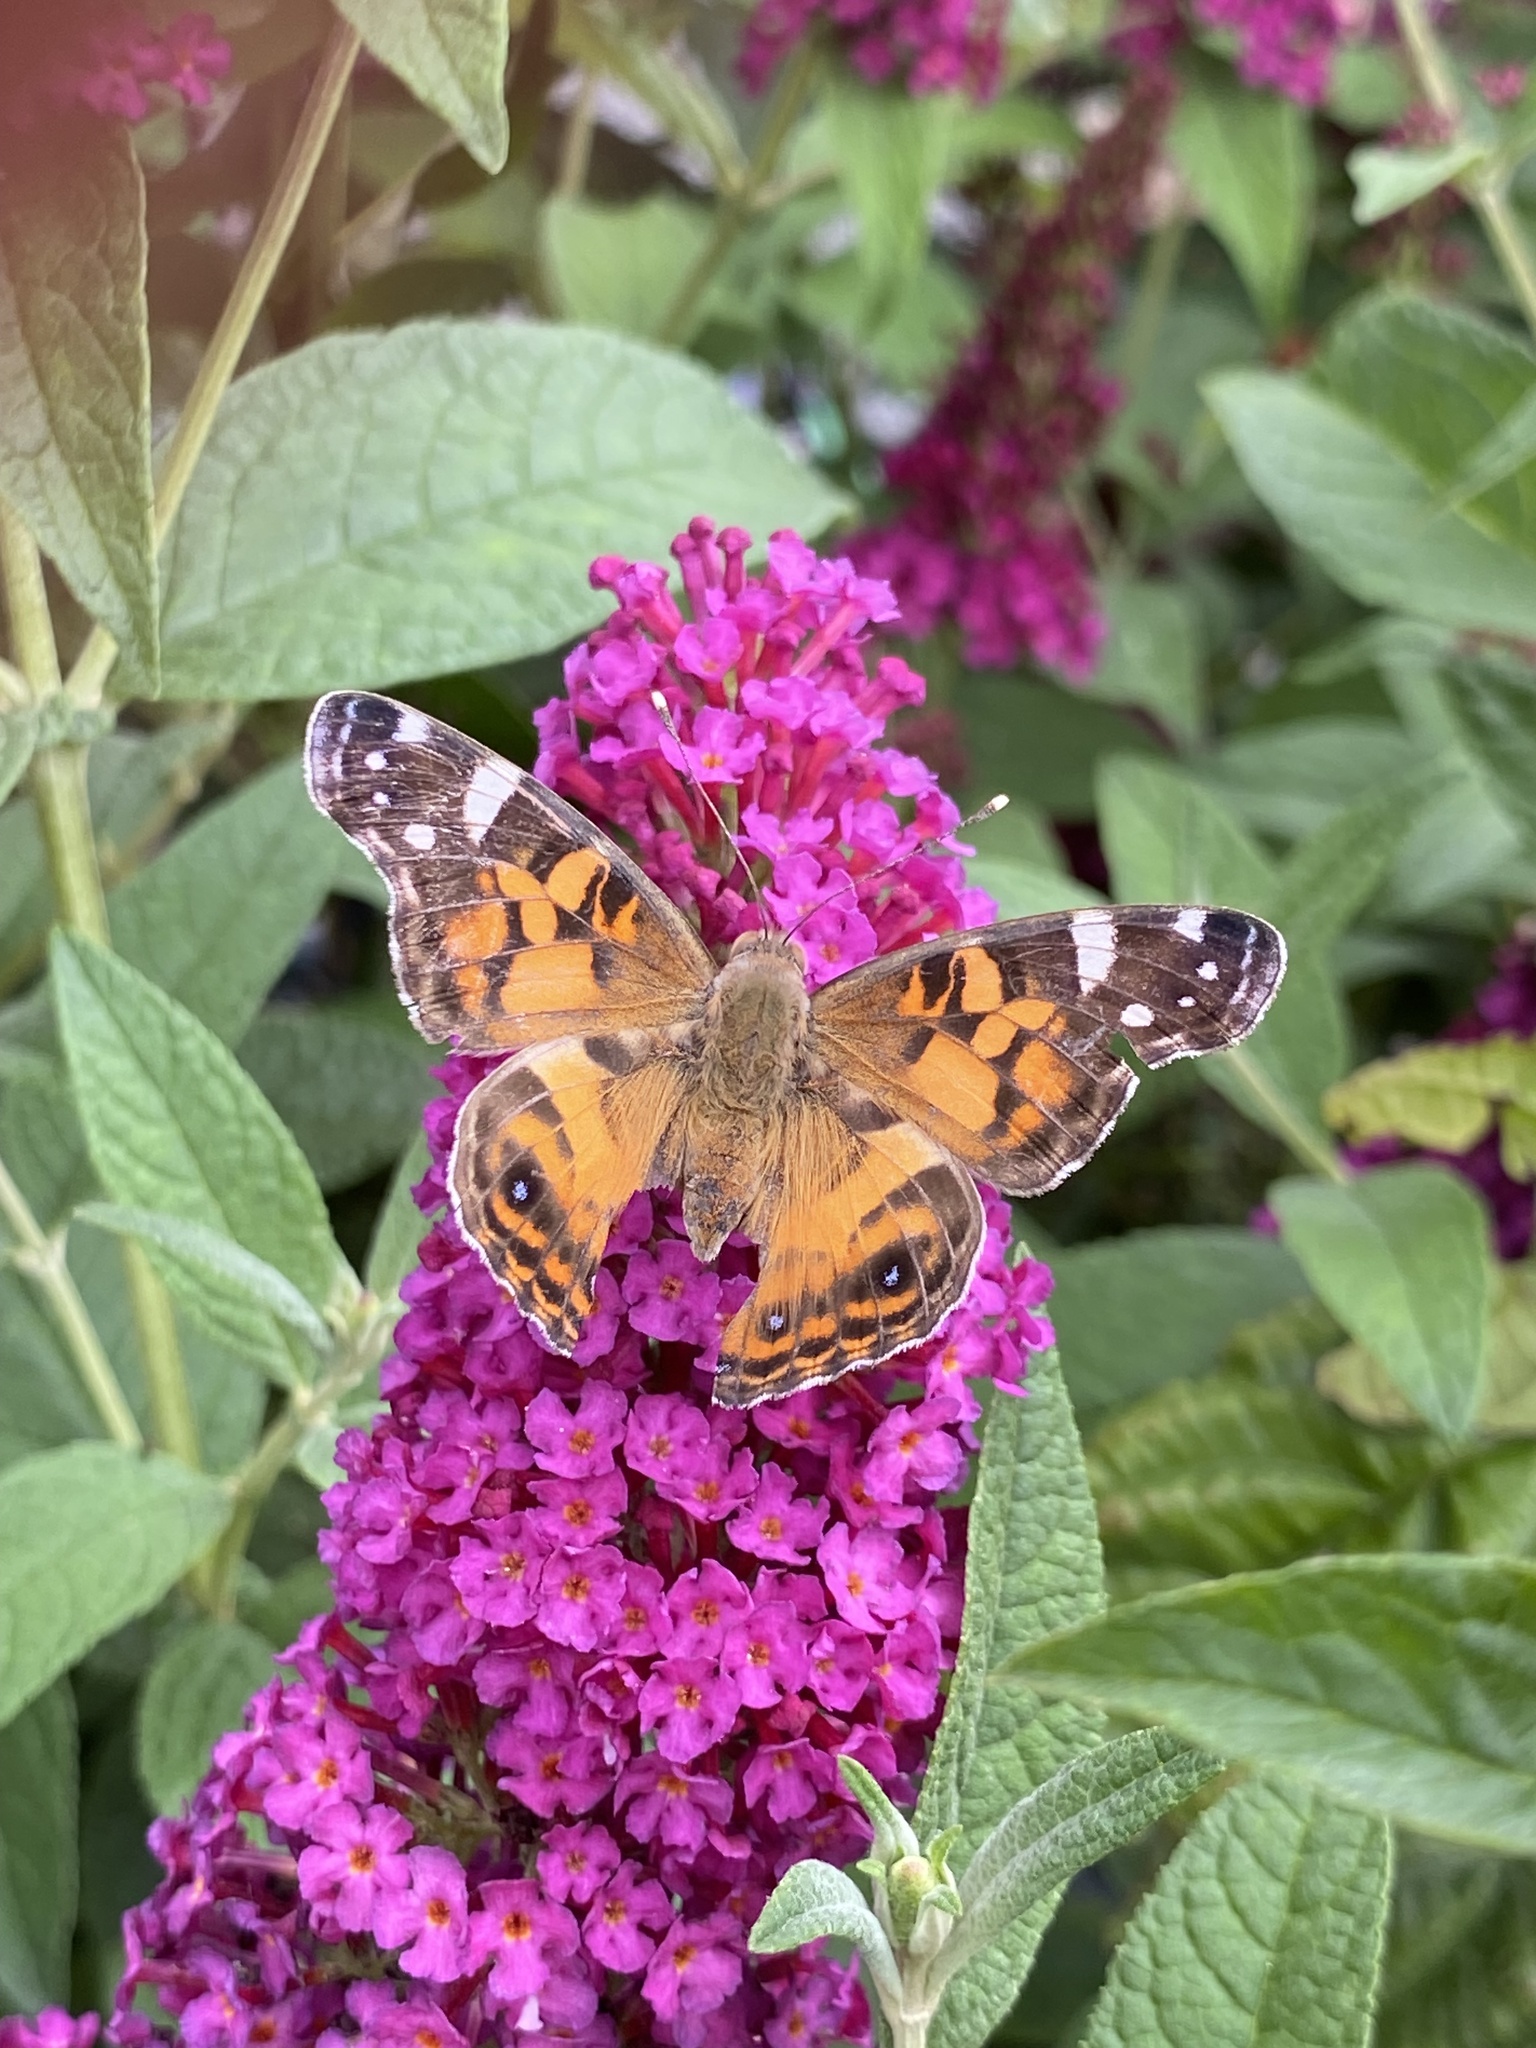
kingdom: Animalia
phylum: Arthropoda
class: Insecta
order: Lepidoptera
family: Nymphalidae
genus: Vanessa
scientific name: Vanessa virginiensis
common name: American lady
